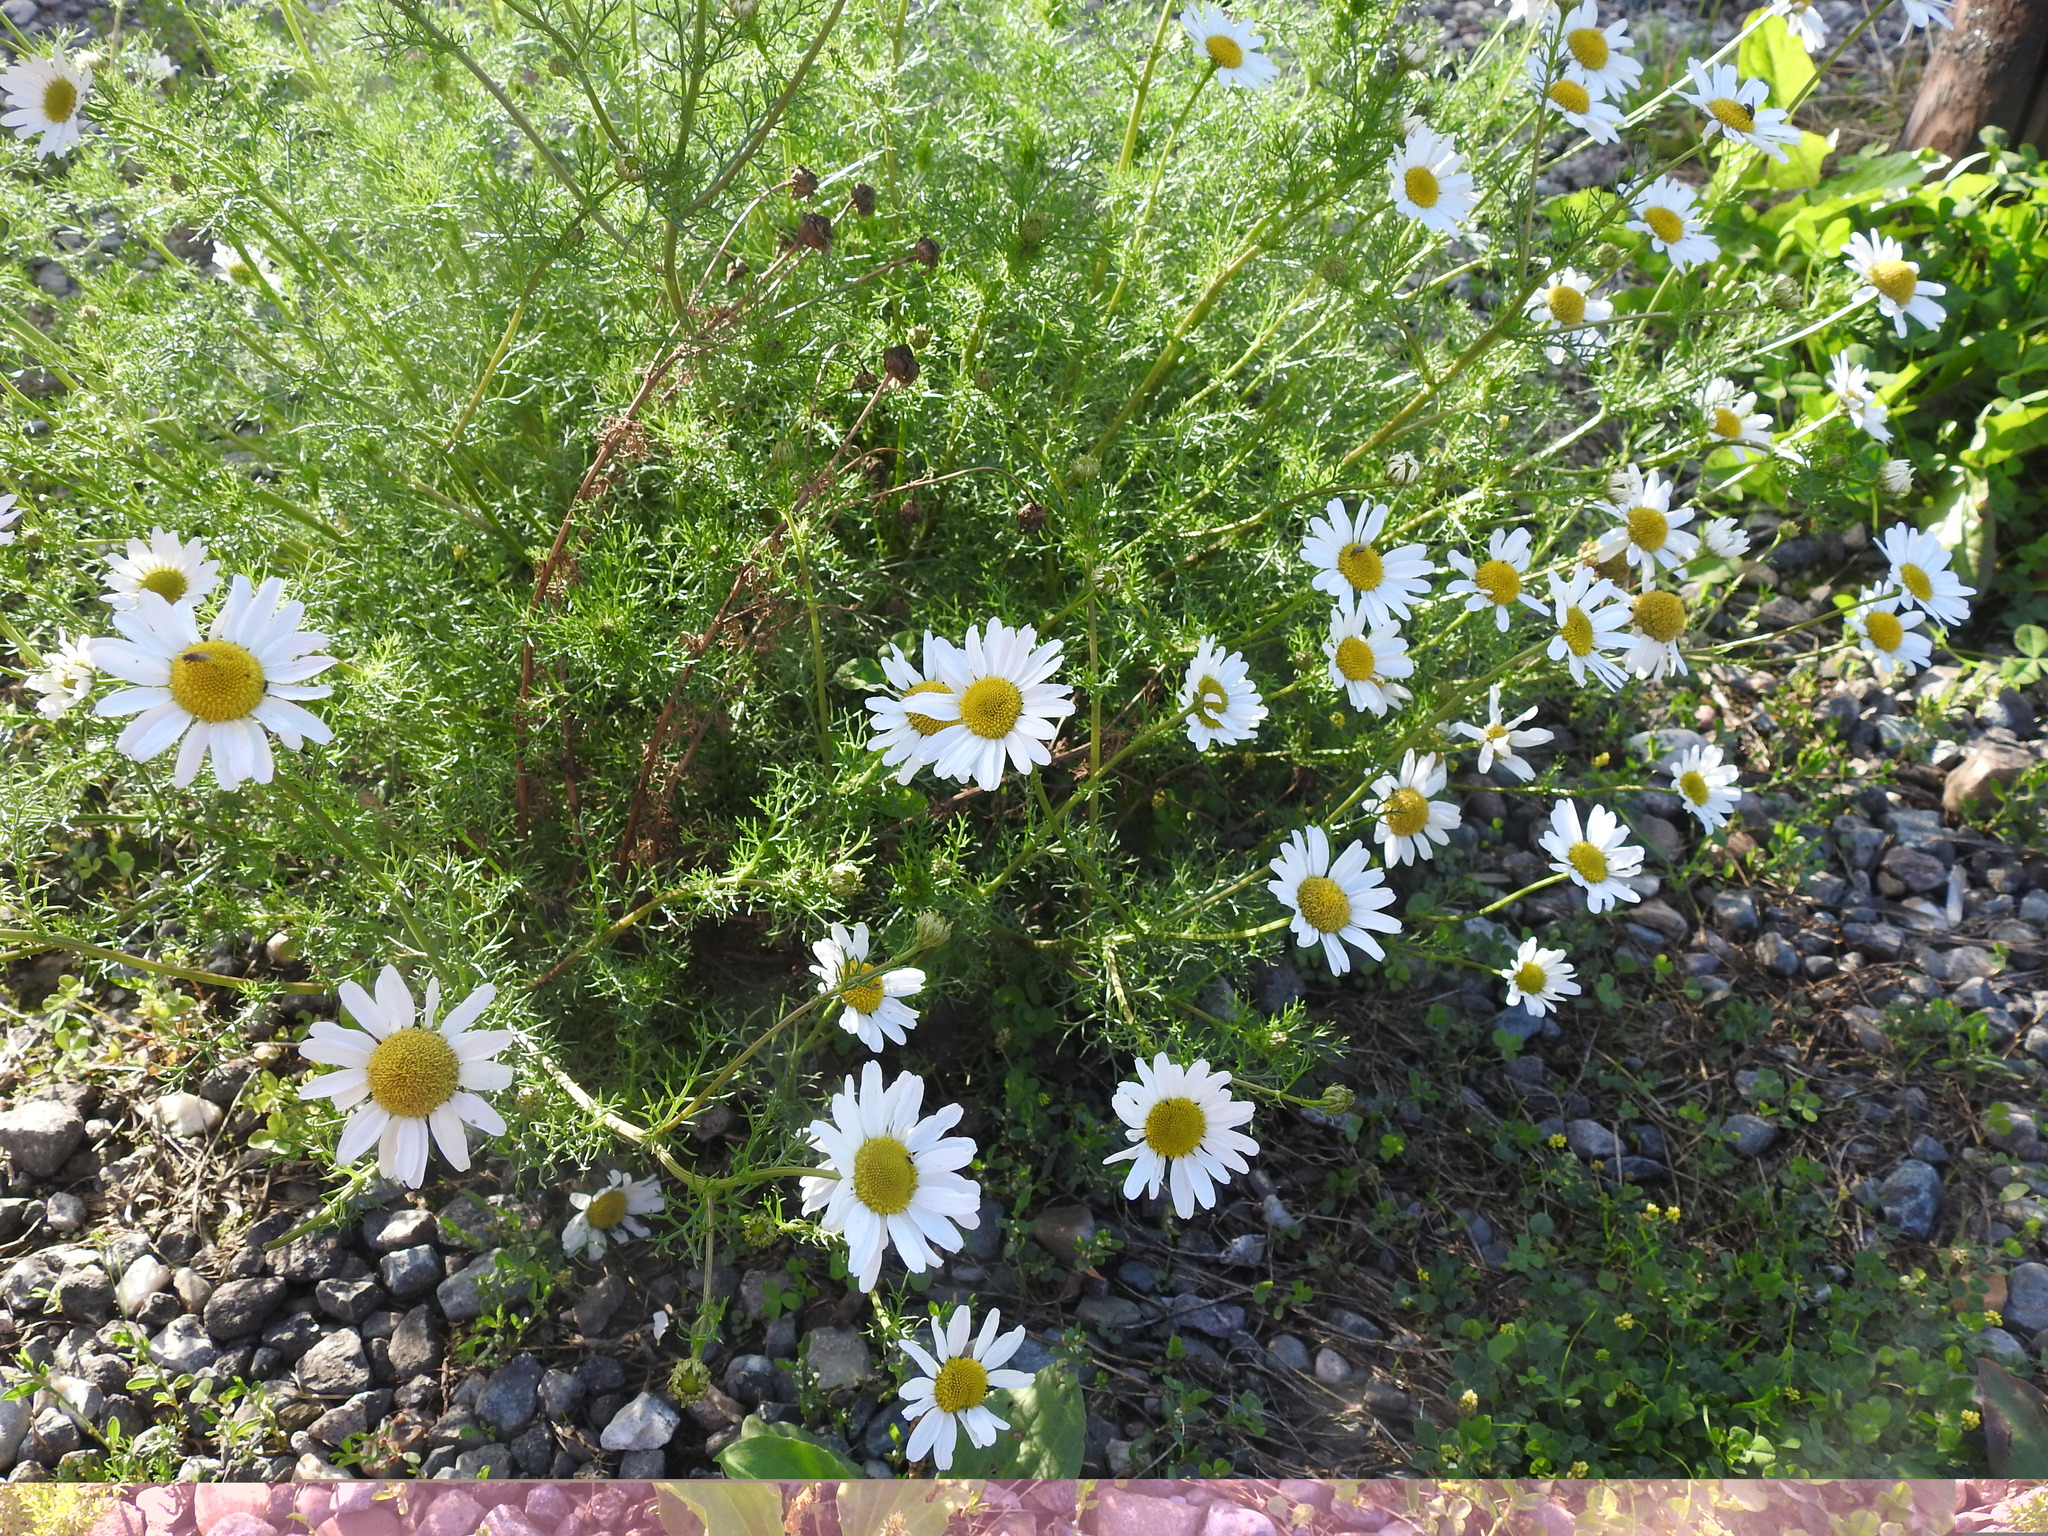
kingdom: Plantae
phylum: Tracheophyta
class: Magnoliopsida
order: Asterales
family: Asteraceae
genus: Tripleurospermum
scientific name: Tripleurospermum inodorum
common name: Scentless mayweed
